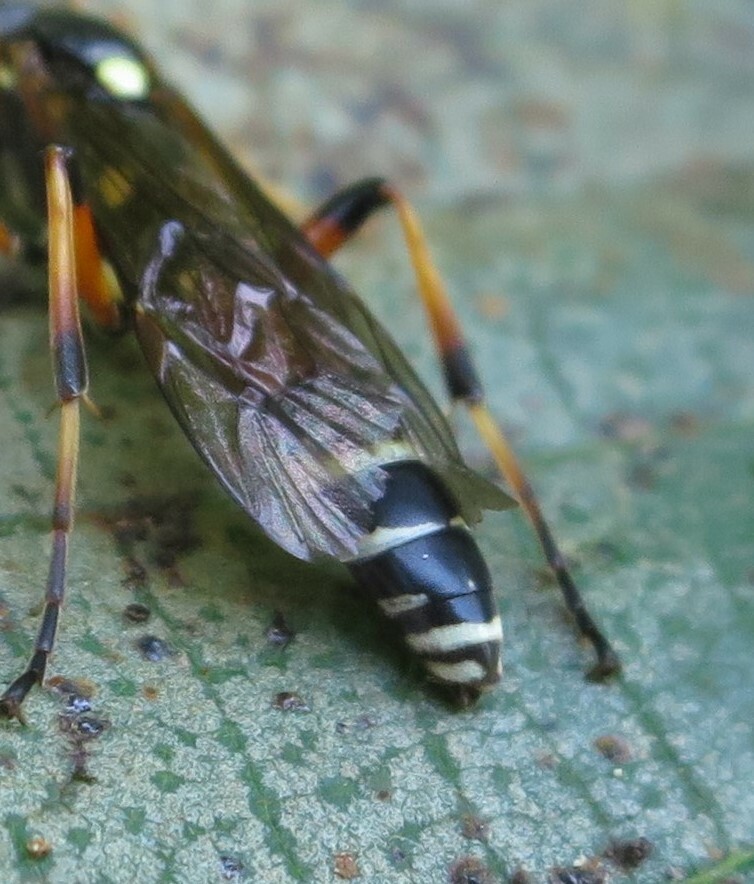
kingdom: Animalia
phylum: Arthropoda
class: Insecta
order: Hymenoptera
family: Ichneumonidae
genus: Ichneumon
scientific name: Ichneumon promissorius
